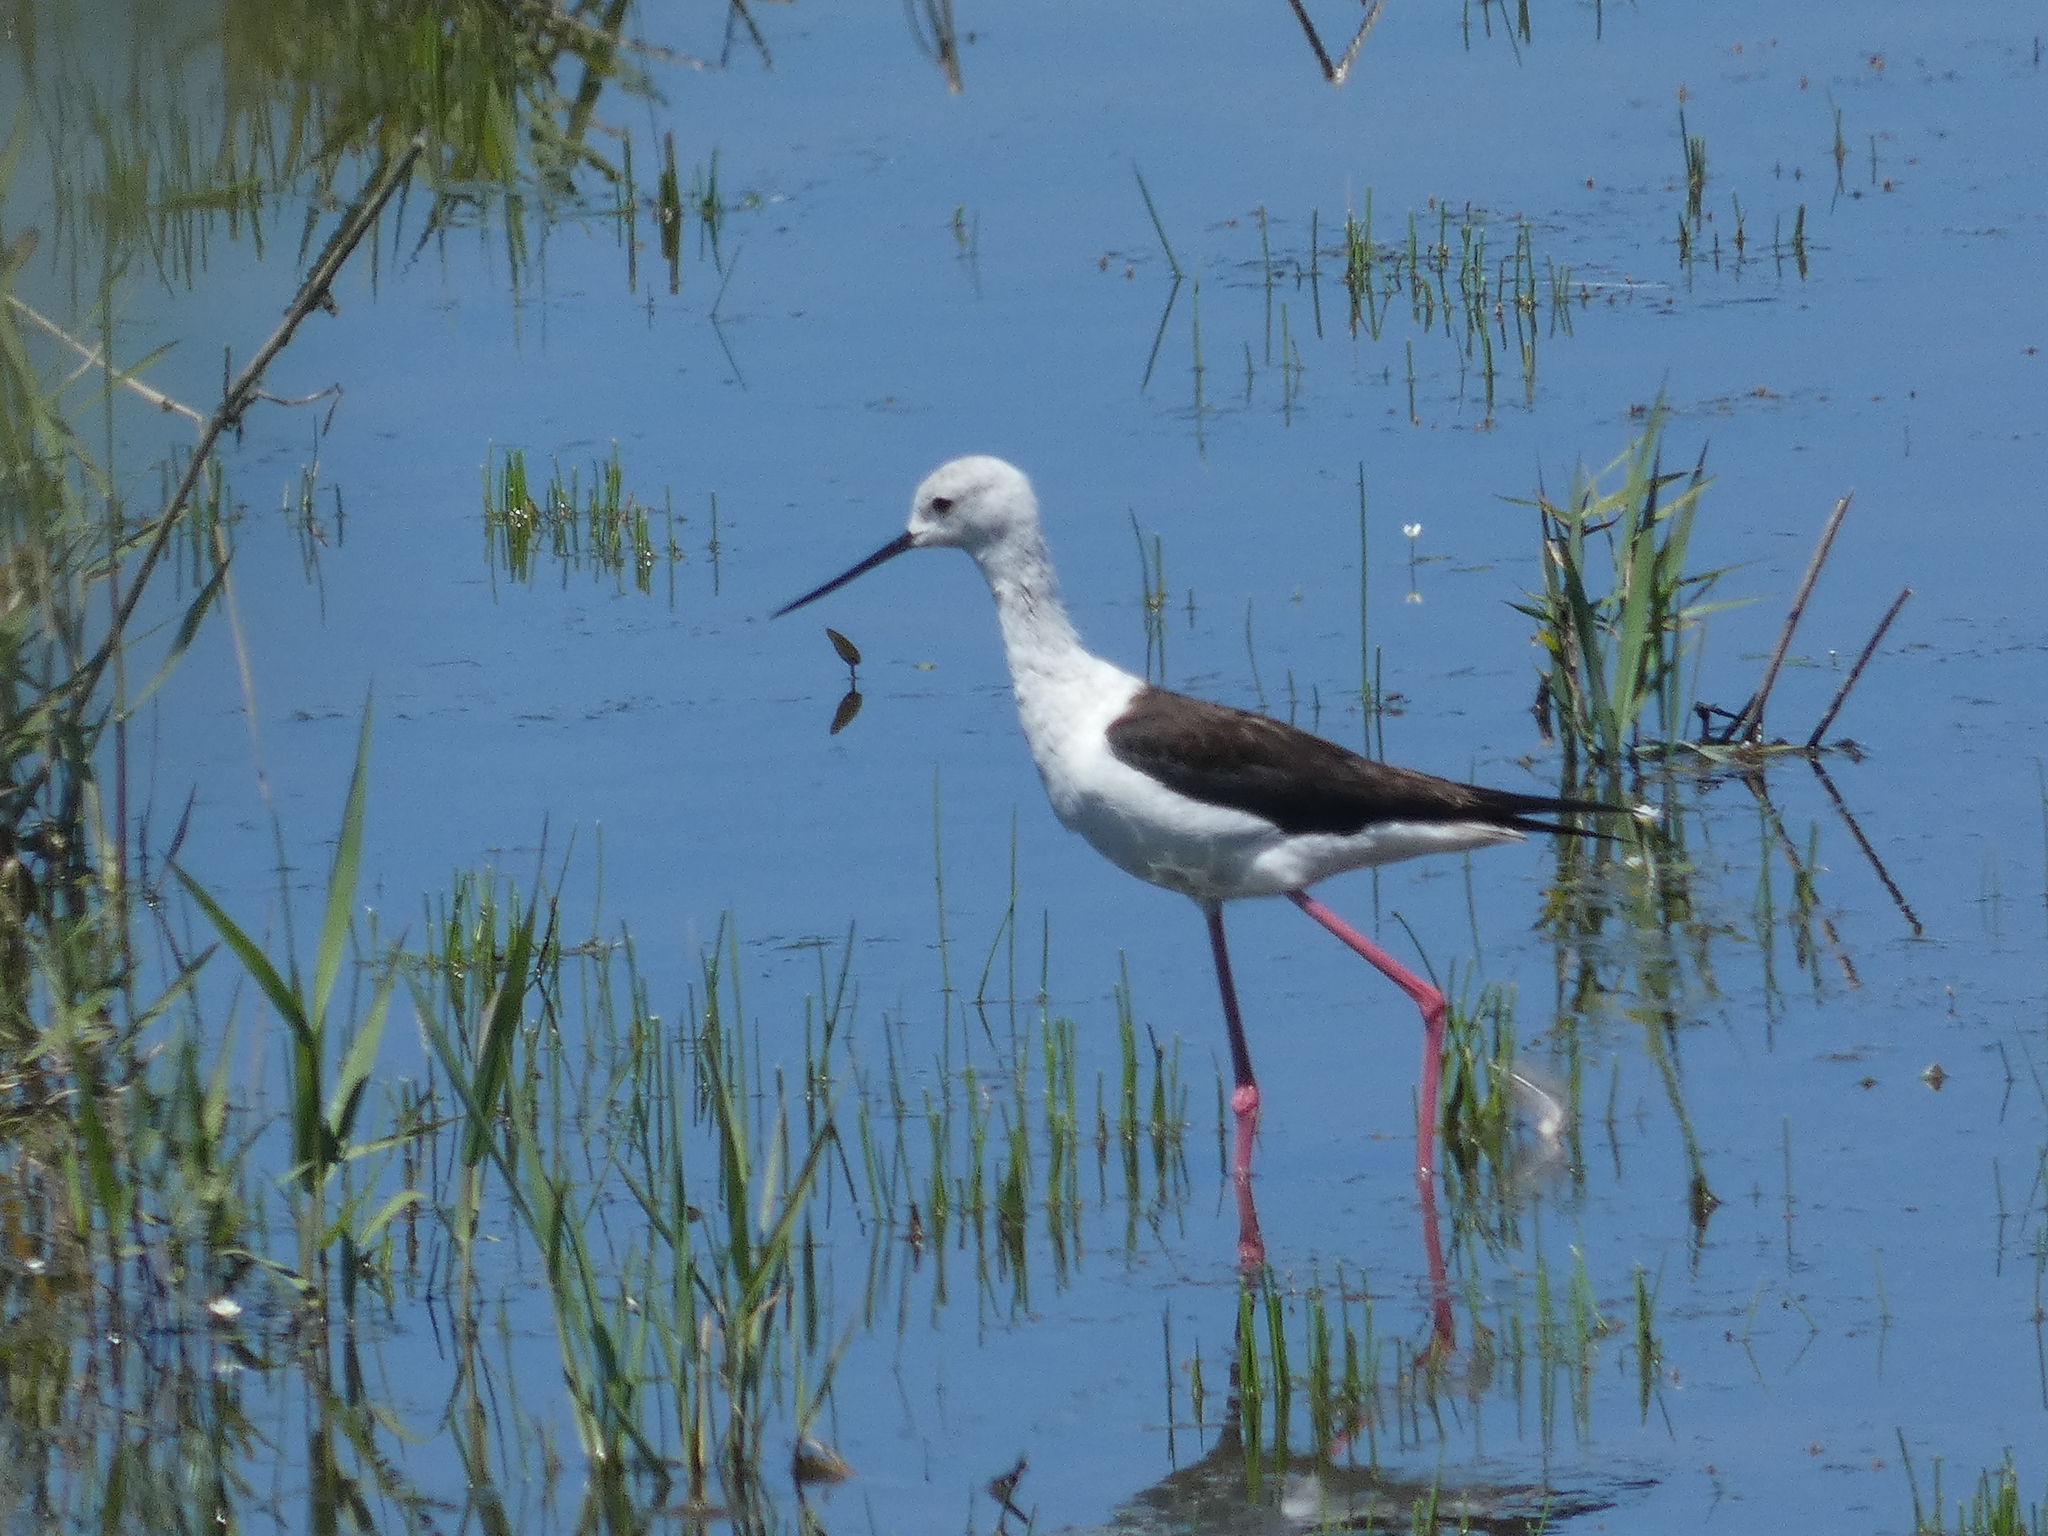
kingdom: Animalia
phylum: Chordata
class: Aves
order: Charadriiformes
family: Recurvirostridae
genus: Himantopus
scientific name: Himantopus himantopus
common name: Black-winged stilt
